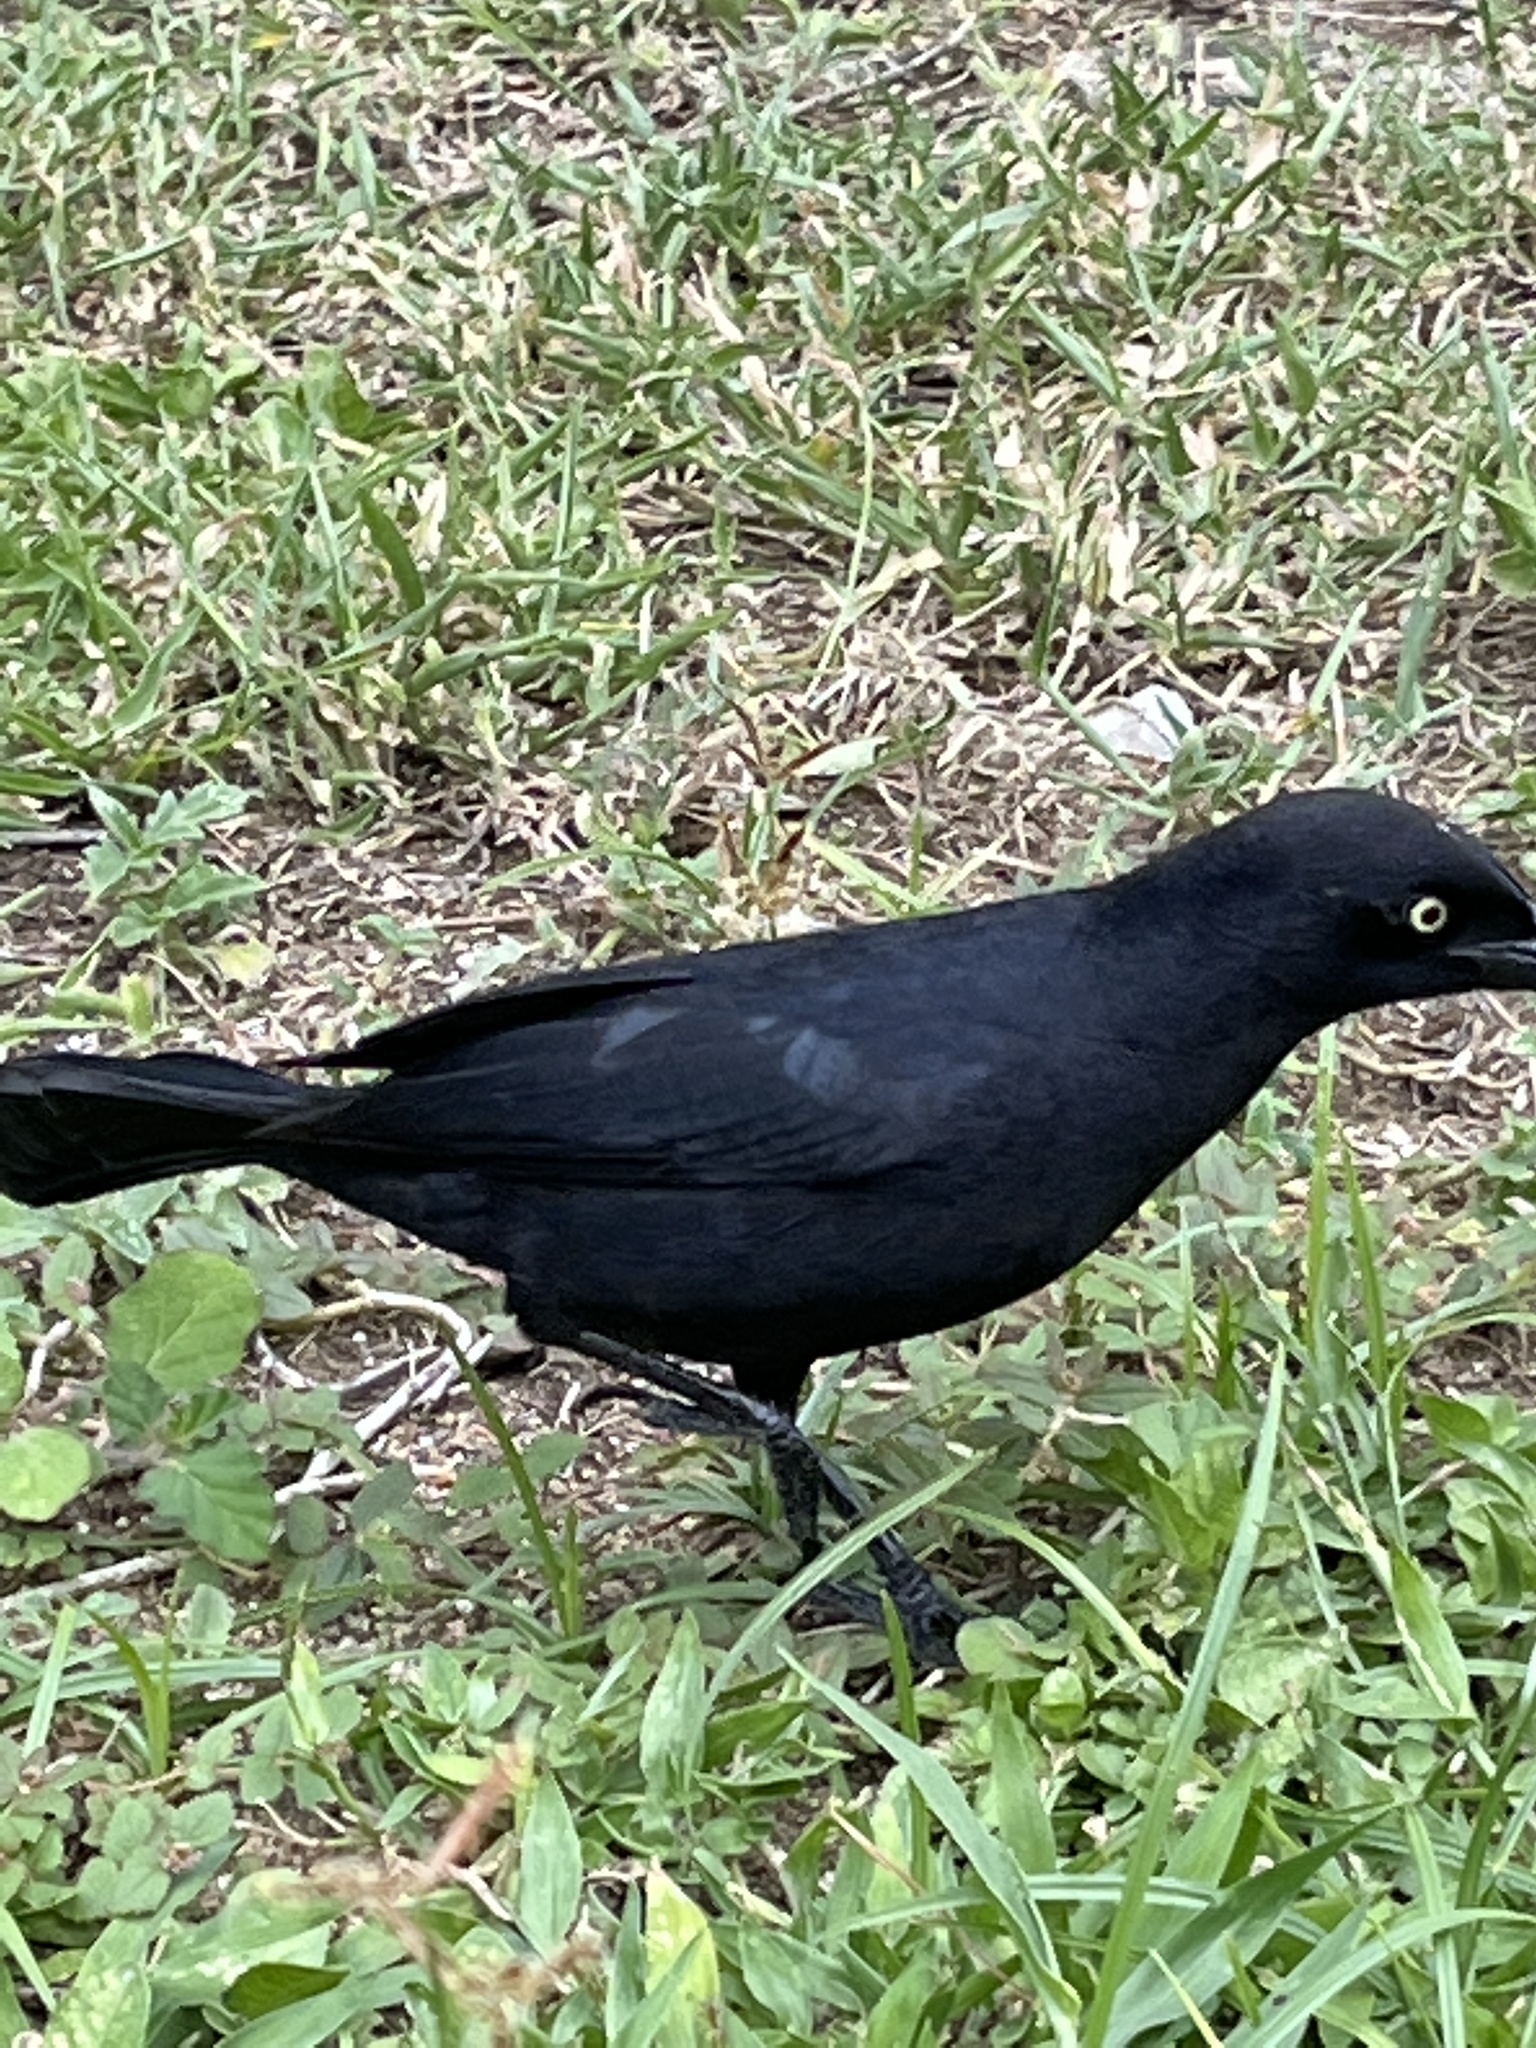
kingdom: Animalia
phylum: Chordata
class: Aves
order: Passeriformes
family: Icteridae
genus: Quiscalus
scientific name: Quiscalus niger
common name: Greater antillean grackle
